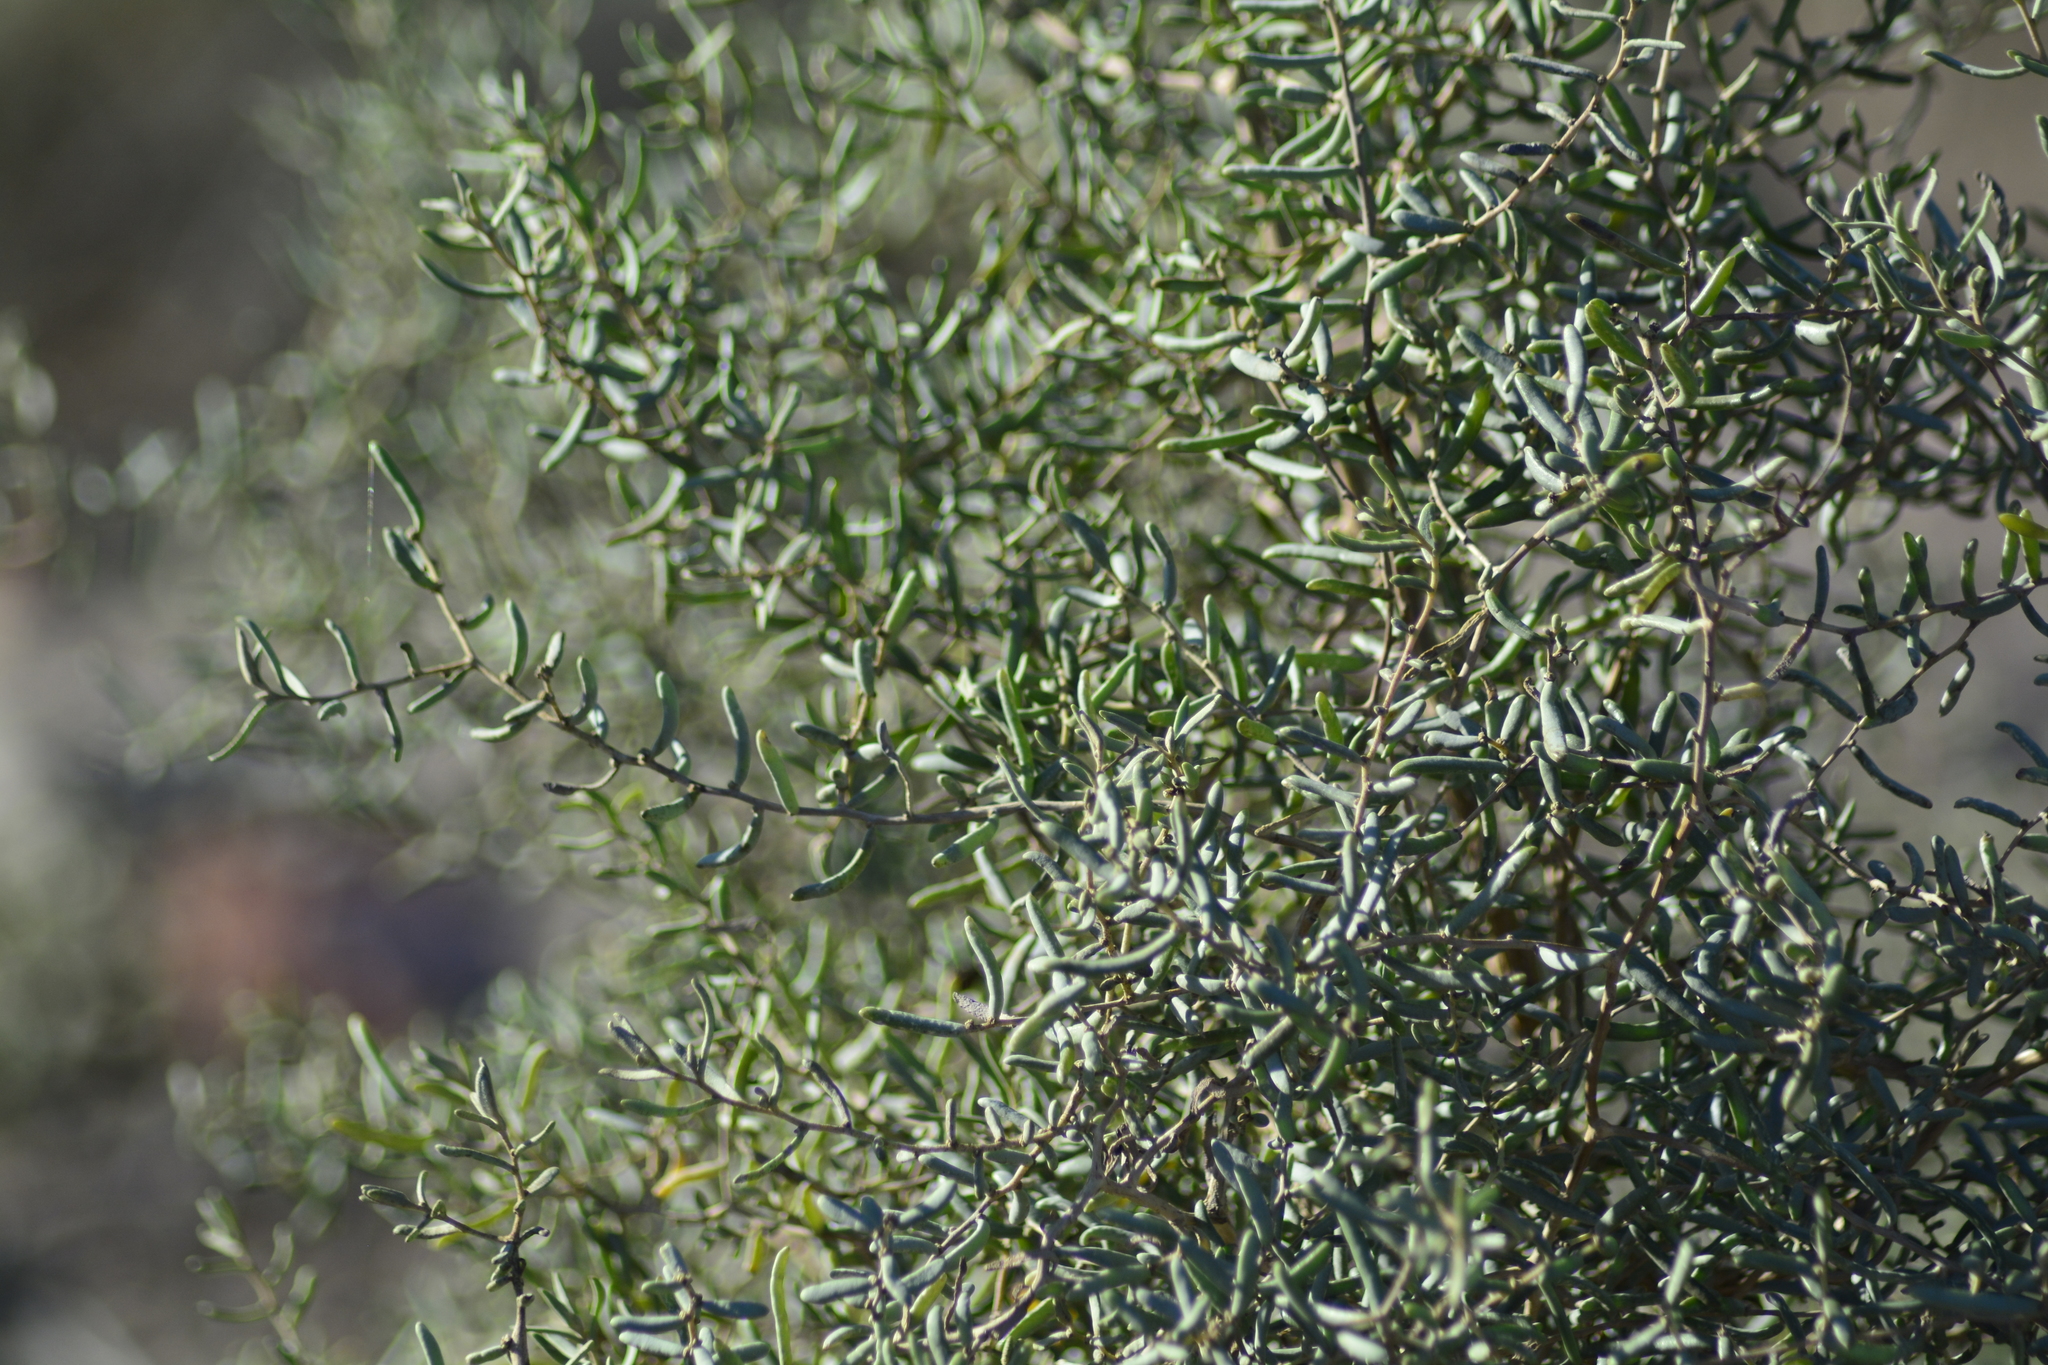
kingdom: Plantae
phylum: Tracheophyta
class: Magnoliopsida
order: Caryophyllales
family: Amaranthaceae
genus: Suaeda
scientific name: Suaeda divaricata
